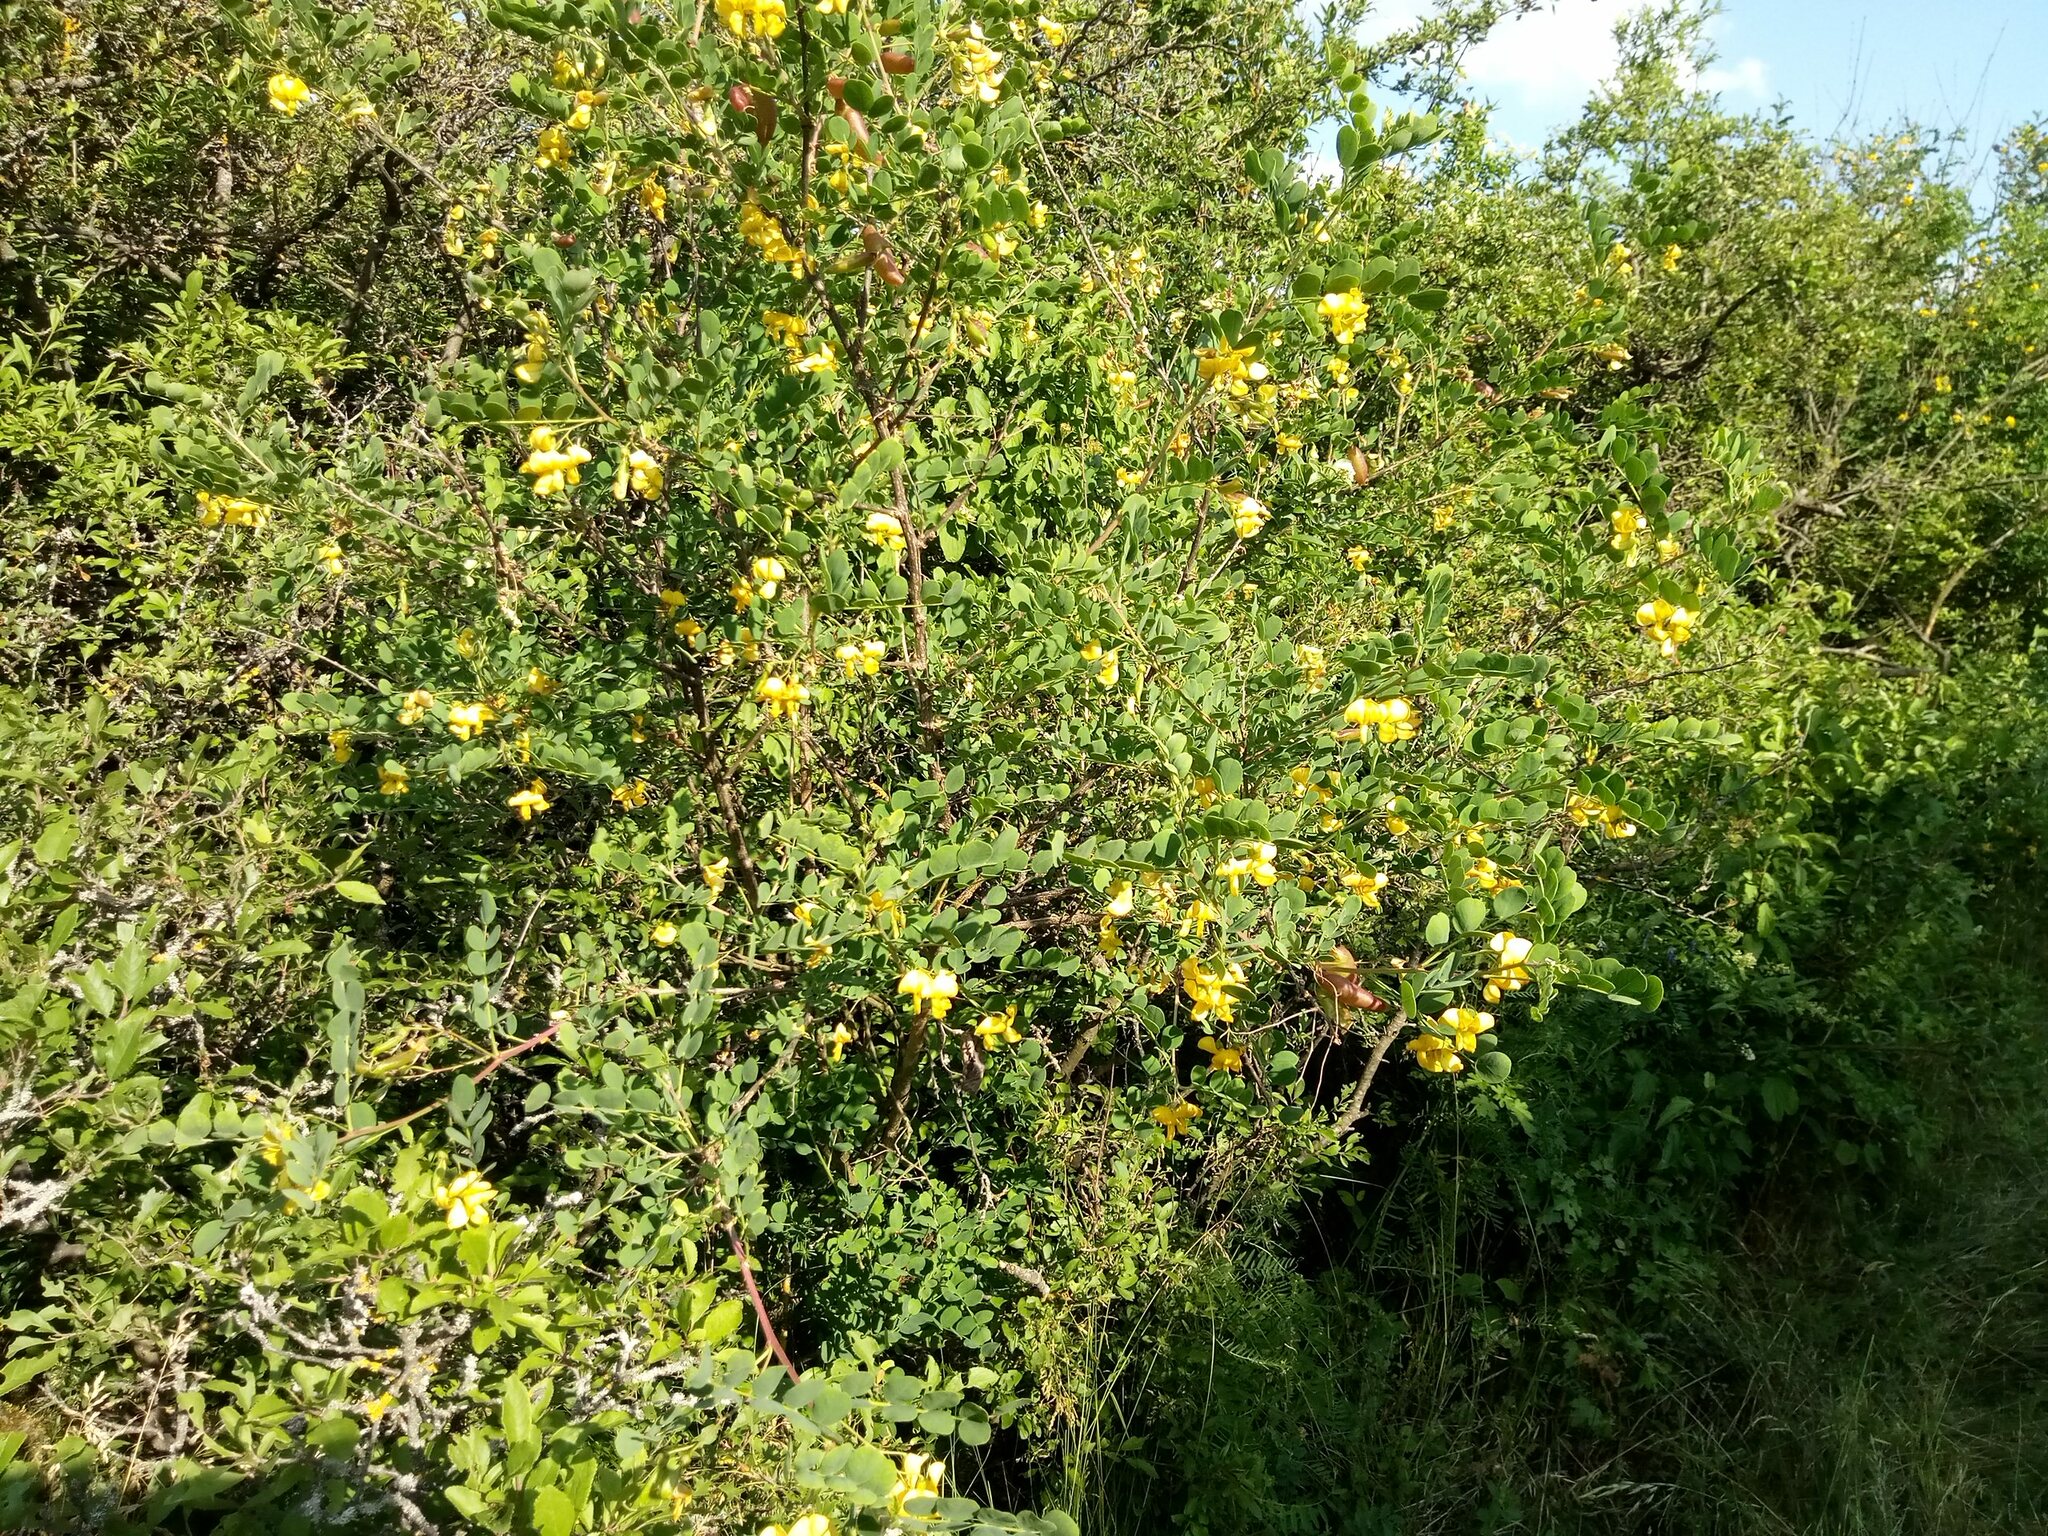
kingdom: Plantae
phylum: Tracheophyta
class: Magnoliopsida
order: Fabales
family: Fabaceae
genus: Colutea
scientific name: Colutea arborescens
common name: Bladder-senna
